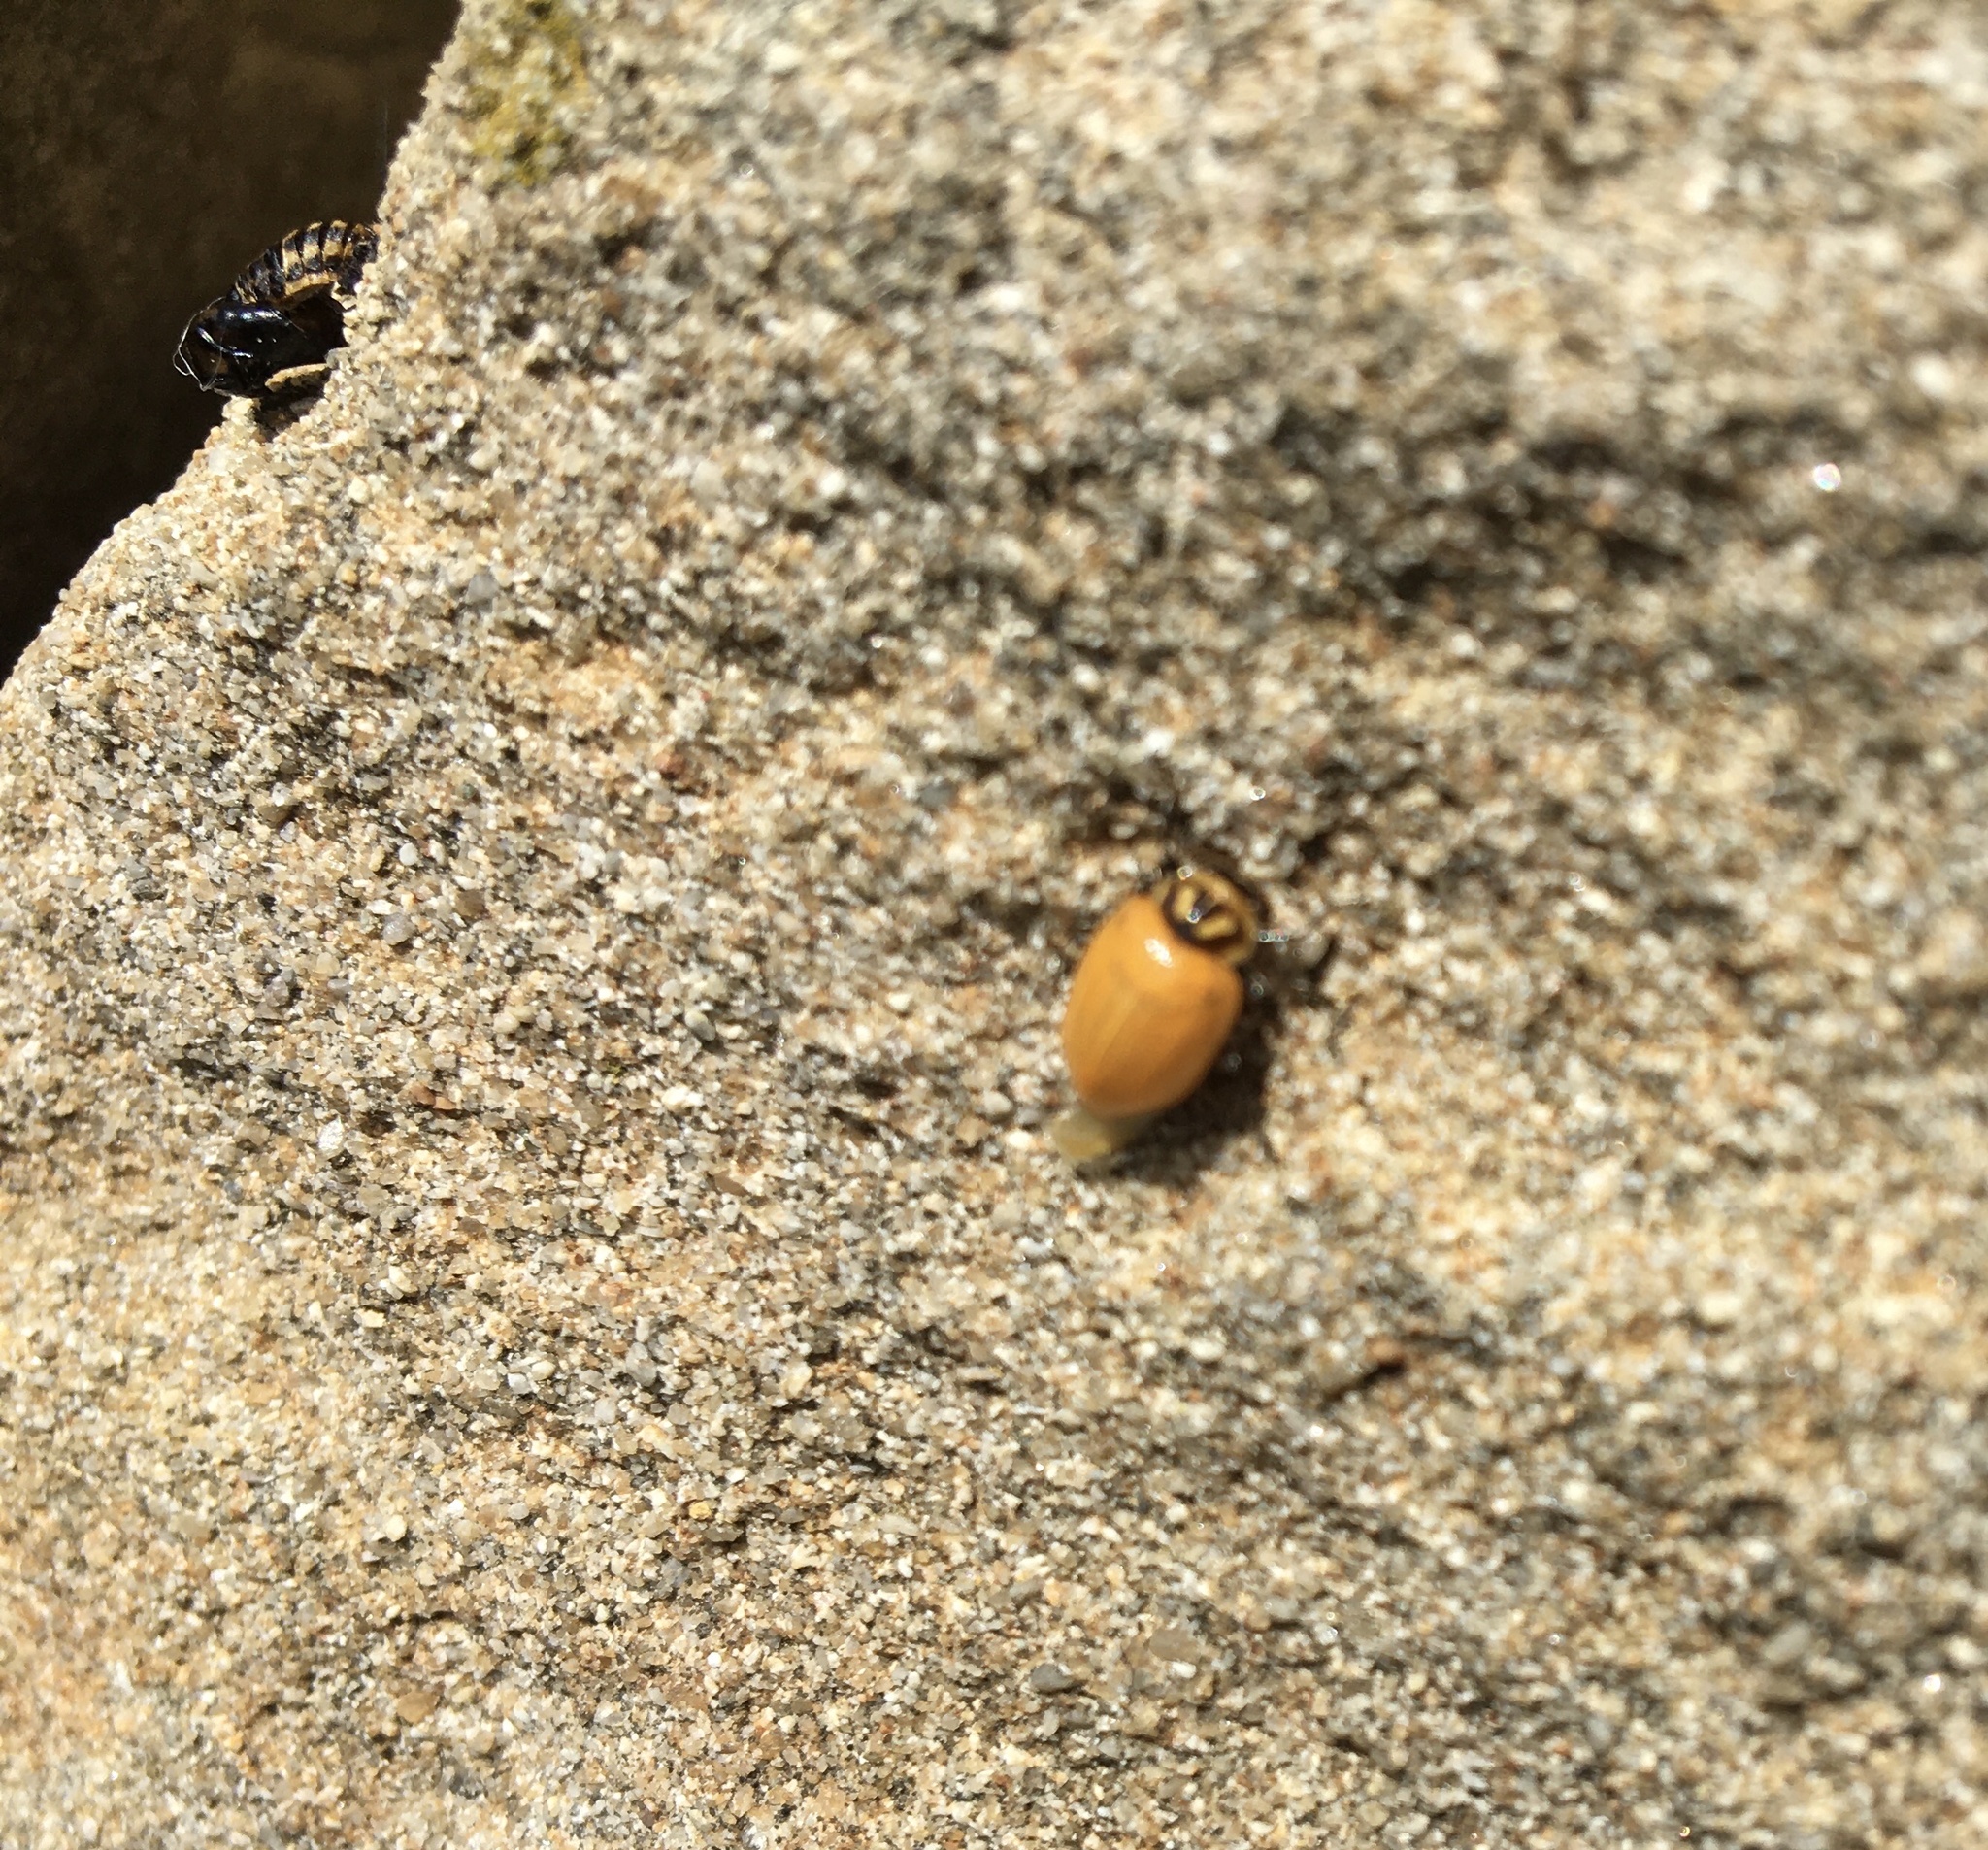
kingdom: Animalia
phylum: Arthropoda
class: Insecta
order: Coleoptera
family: Coccinellidae
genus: Hippodamia
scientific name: Hippodamia convergens
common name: Convergent lady beetle
